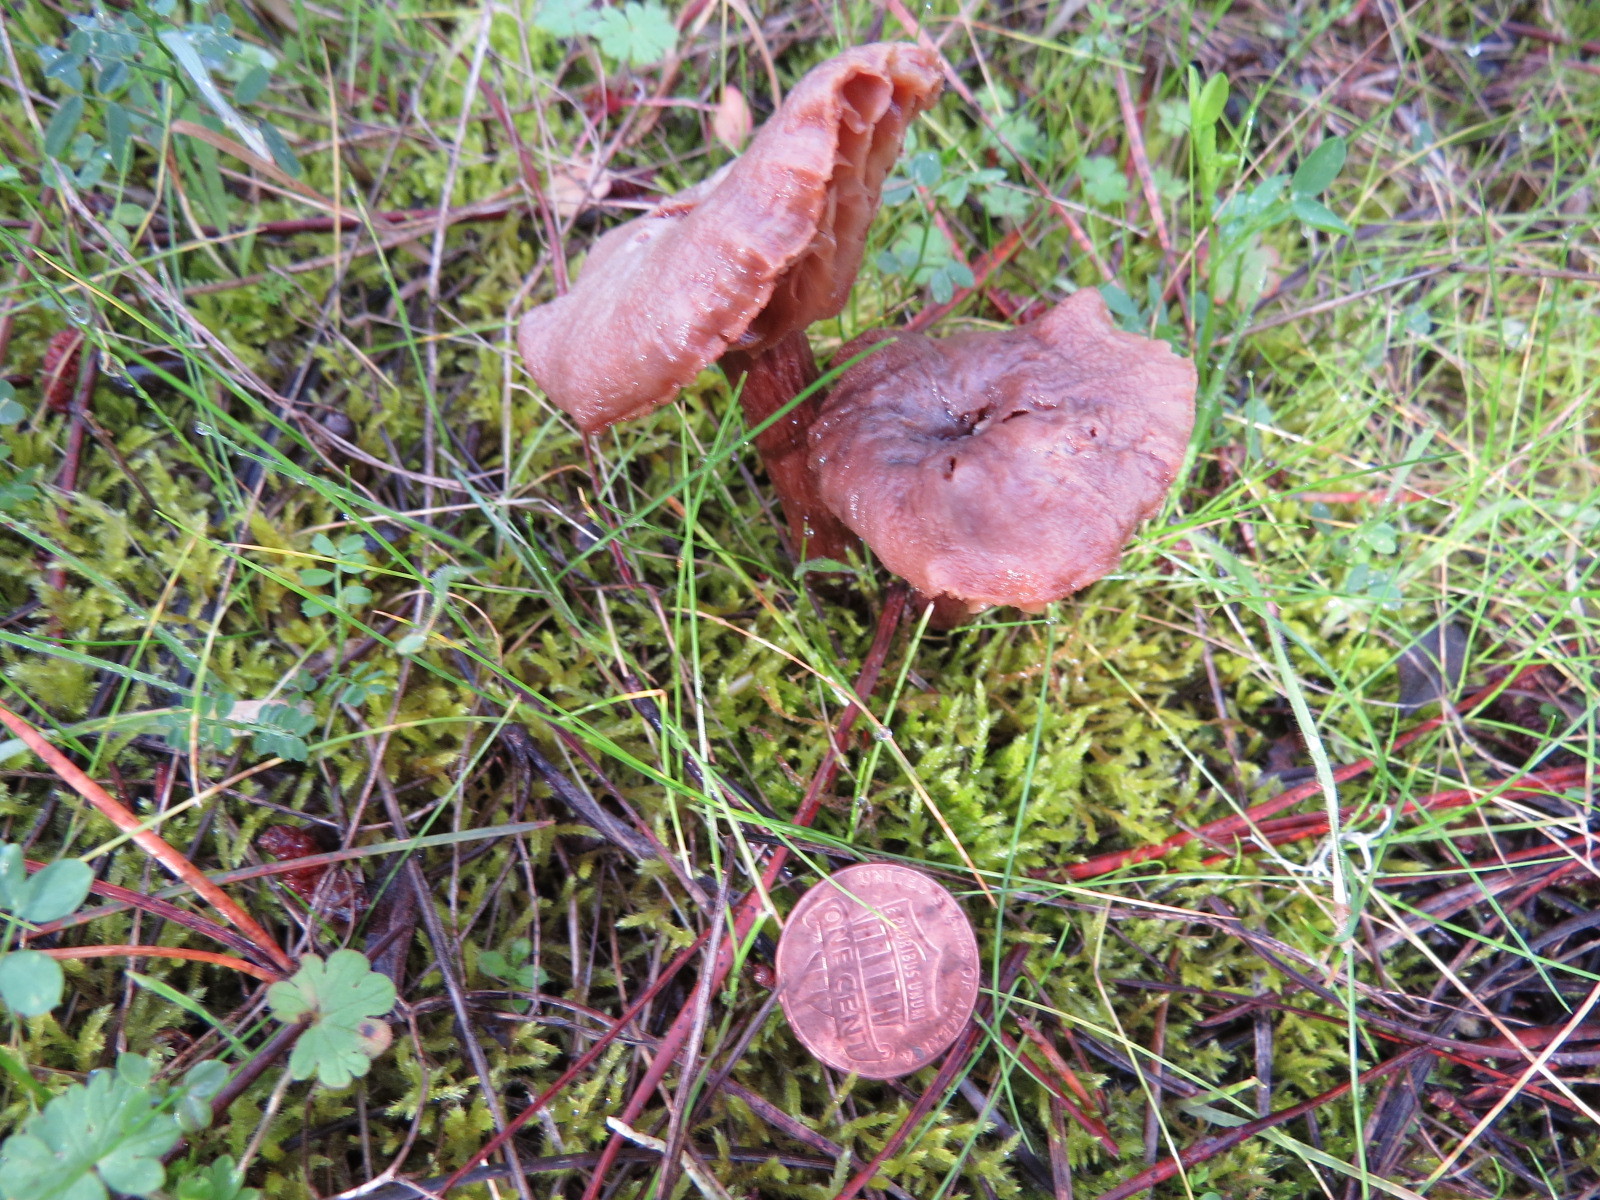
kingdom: Fungi
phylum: Basidiomycota
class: Agaricomycetes
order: Agaricales
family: Hydnangiaceae
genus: Laccaria
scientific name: Laccaria amethysteo-occidentalis
